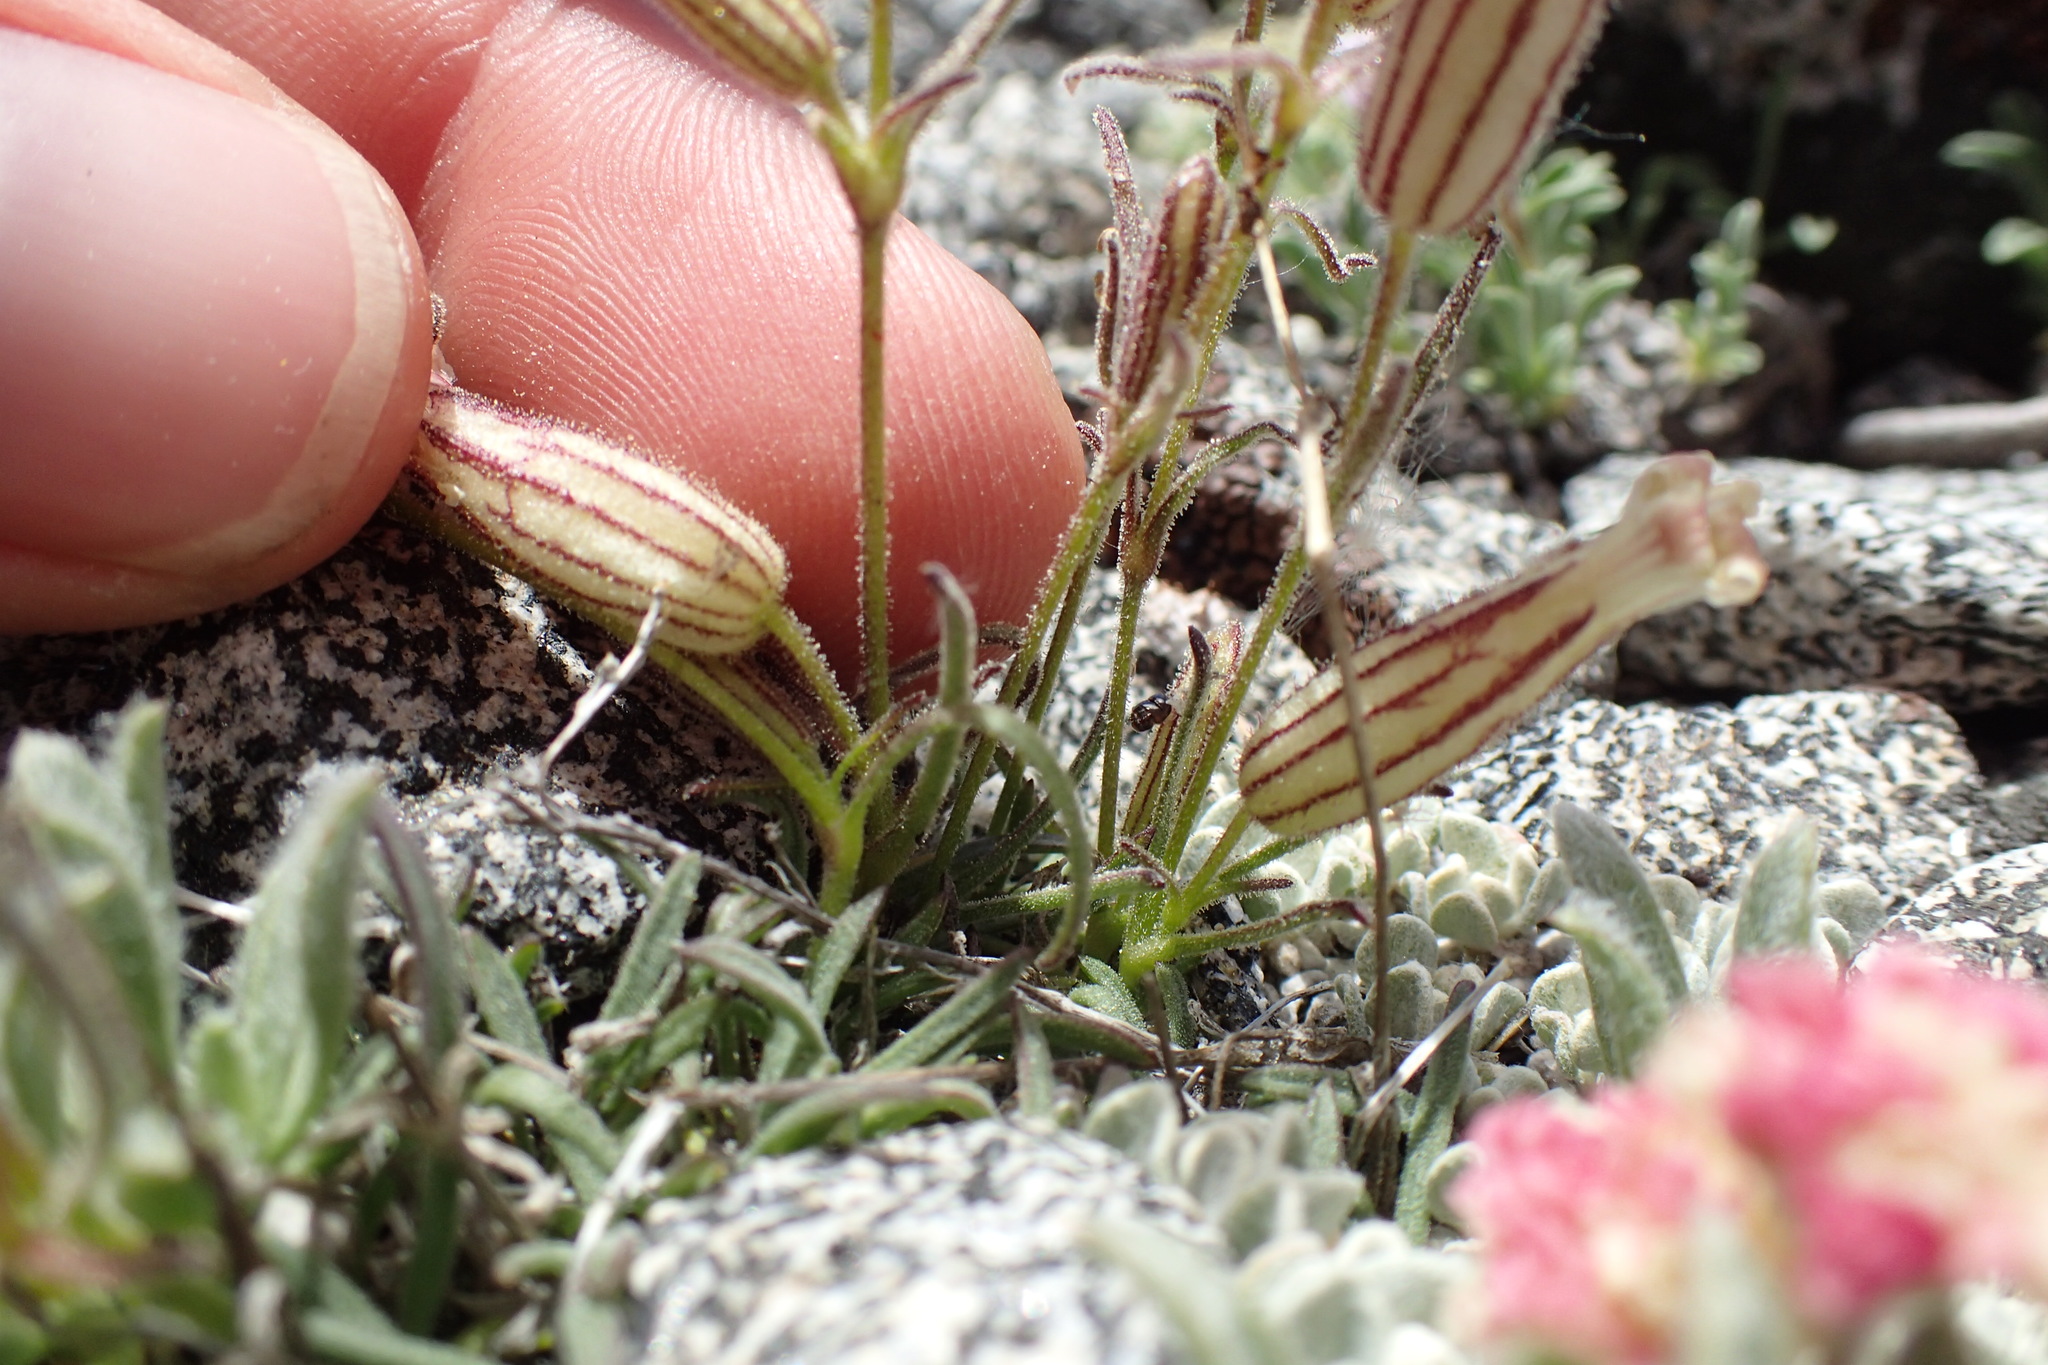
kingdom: Plantae
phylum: Tracheophyta
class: Magnoliopsida
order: Caryophyllales
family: Caryophyllaceae
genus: Silene
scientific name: Silene sargentii
